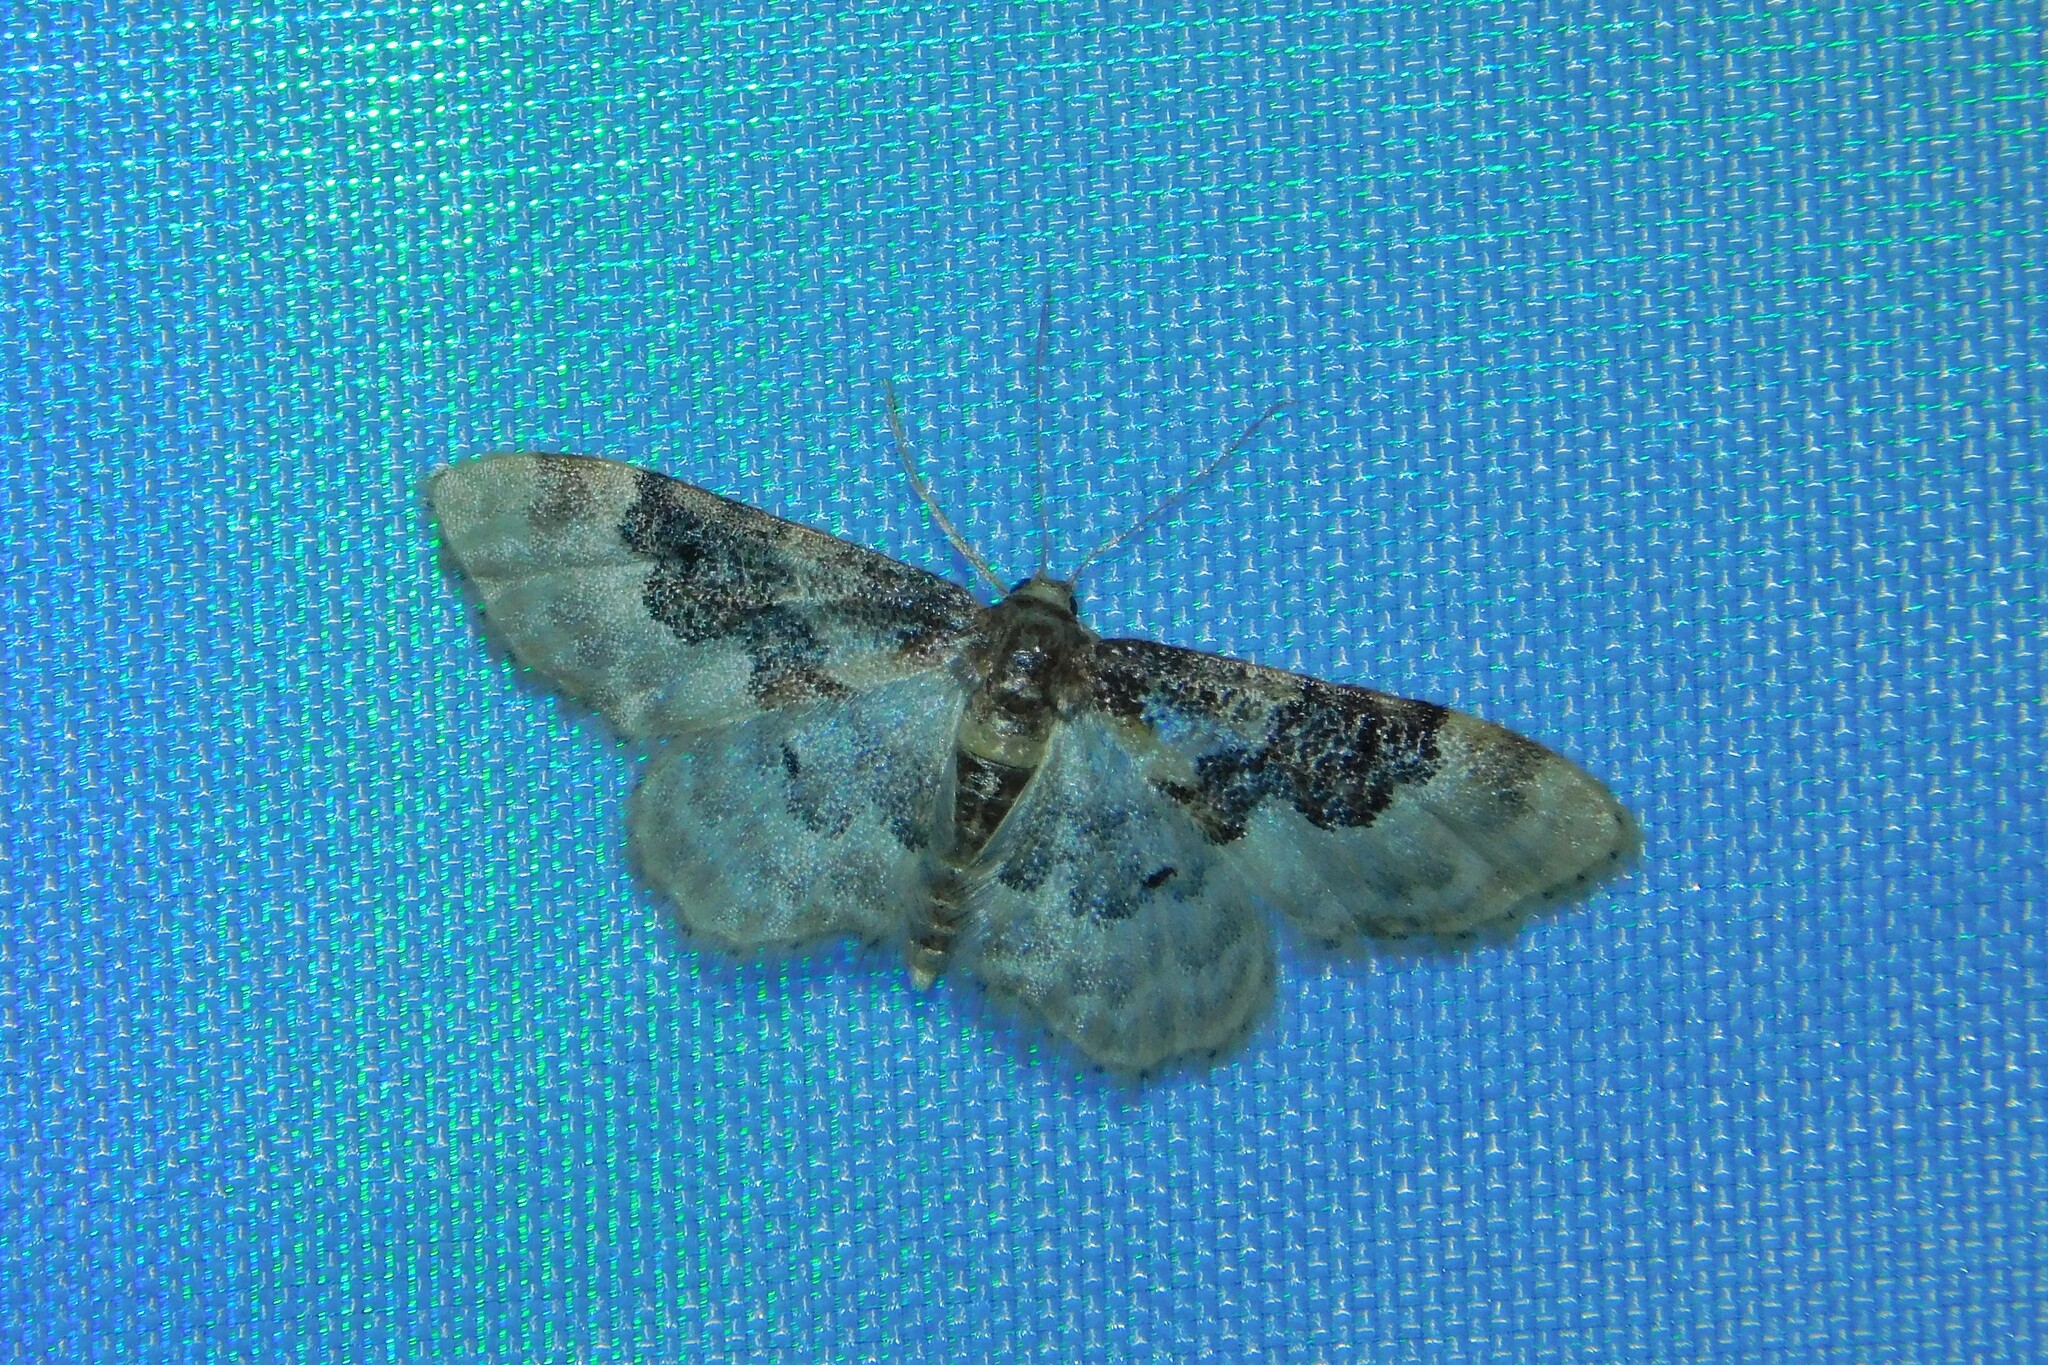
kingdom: Animalia
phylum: Arthropoda
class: Insecta
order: Lepidoptera
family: Geometridae
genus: Idaea
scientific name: Idaea rusticata
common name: Least carpet
